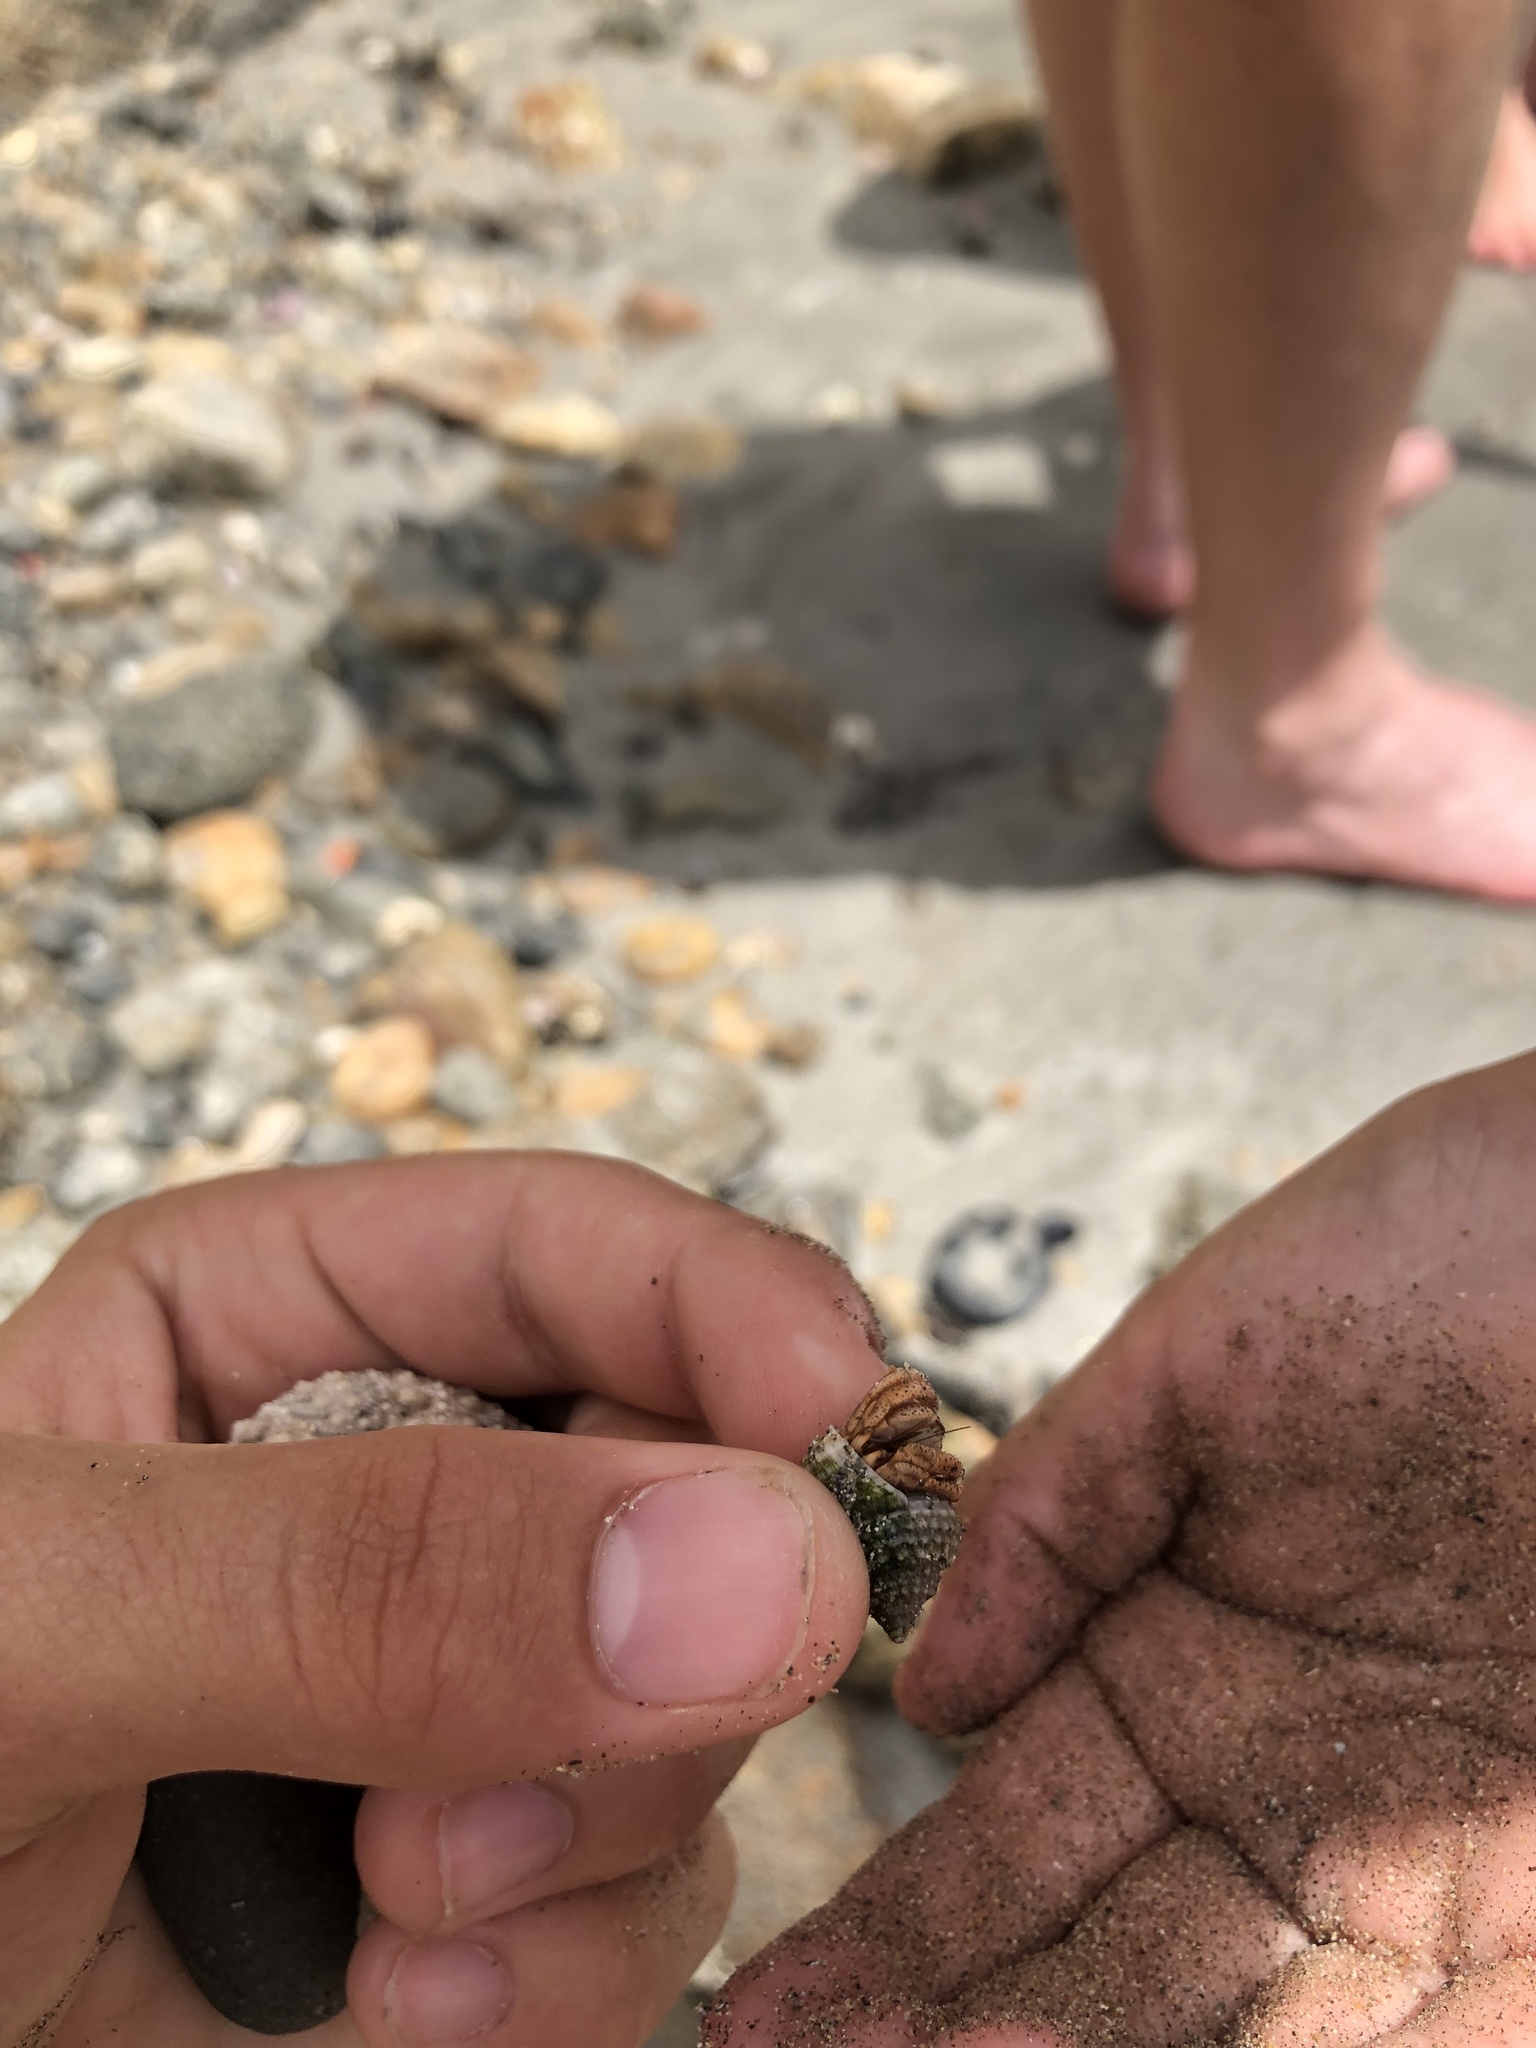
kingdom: Animalia
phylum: Arthropoda
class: Malacostraca
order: Decapoda
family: Coenobitidae
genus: Coenobita
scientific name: Coenobita clypeatus
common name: Caribbean hermit crab
